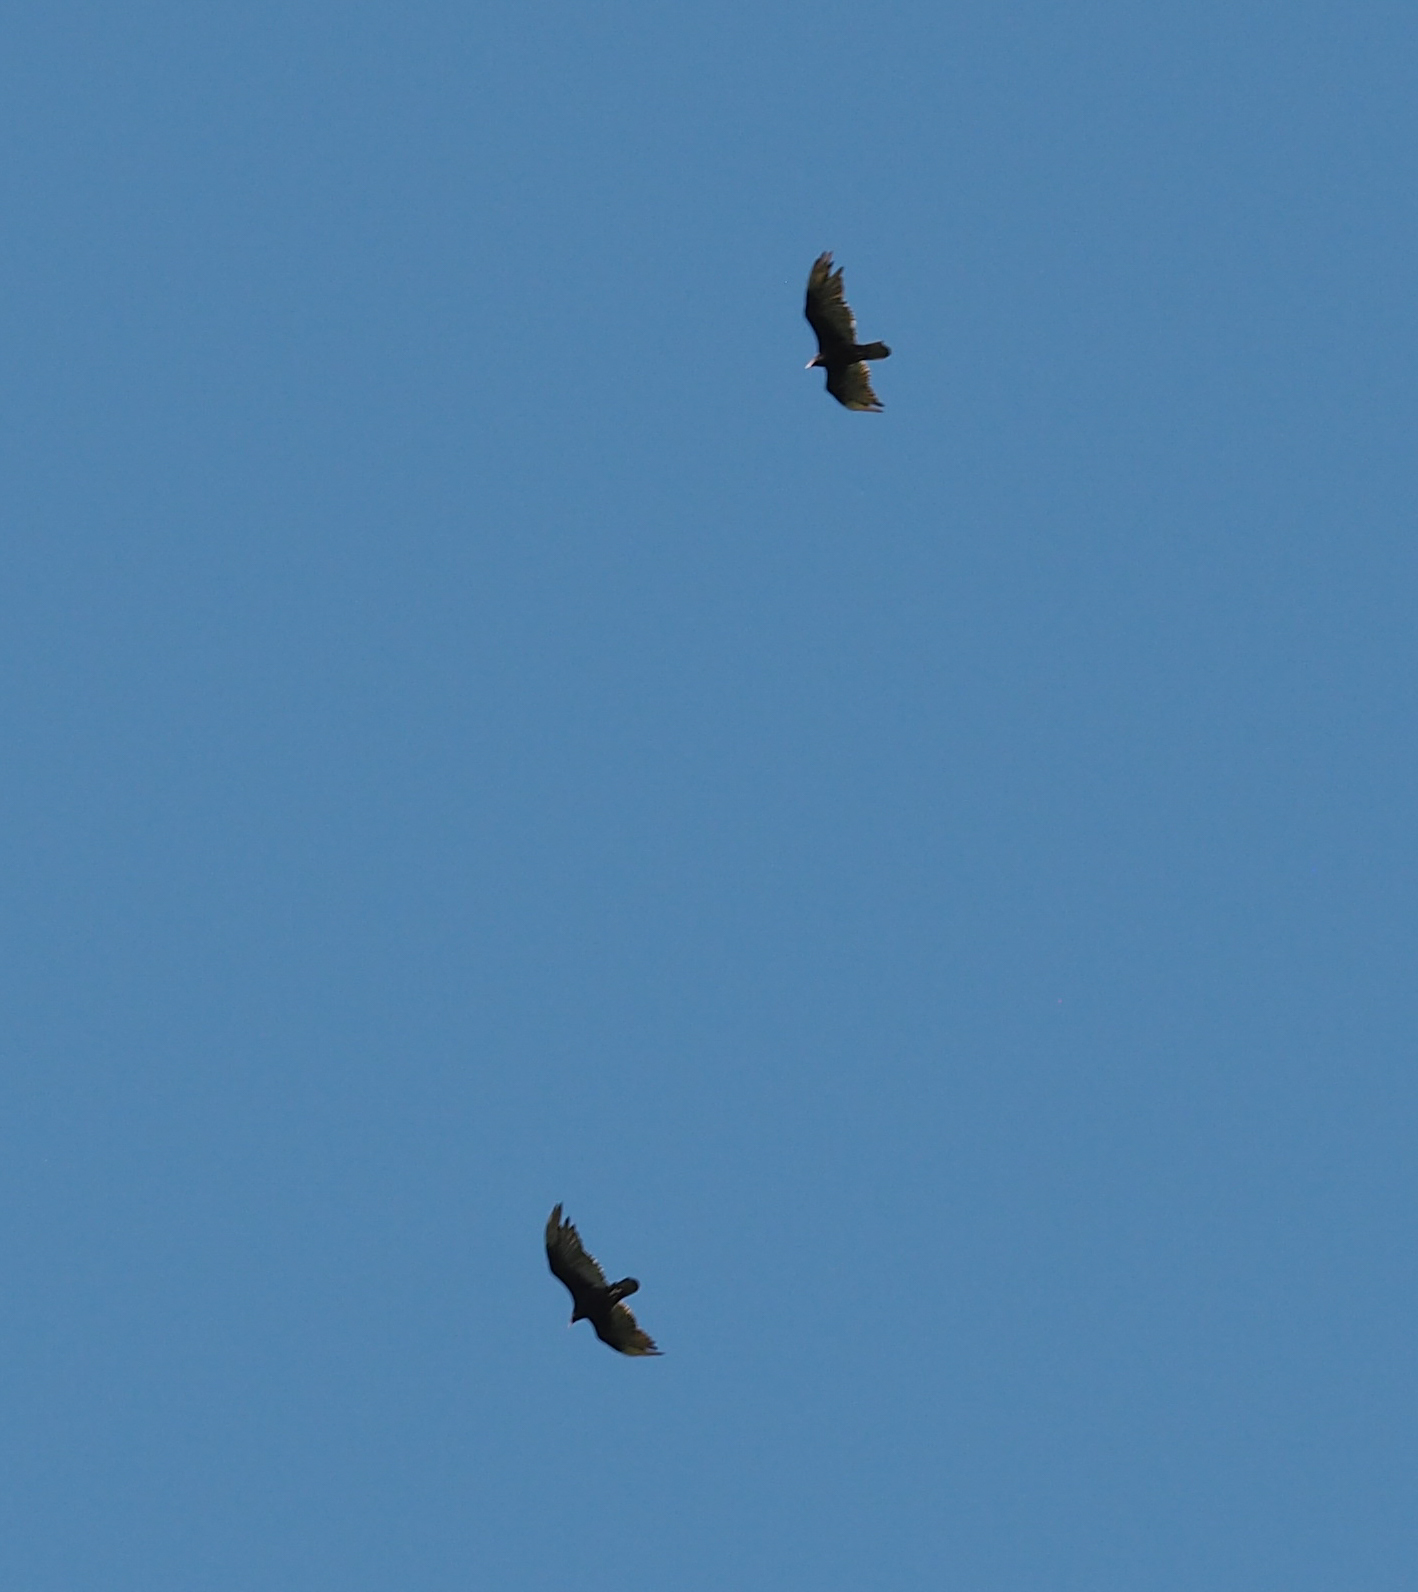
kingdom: Animalia
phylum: Chordata
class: Aves
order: Accipitriformes
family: Cathartidae
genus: Cathartes
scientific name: Cathartes aura
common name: Turkey vulture
